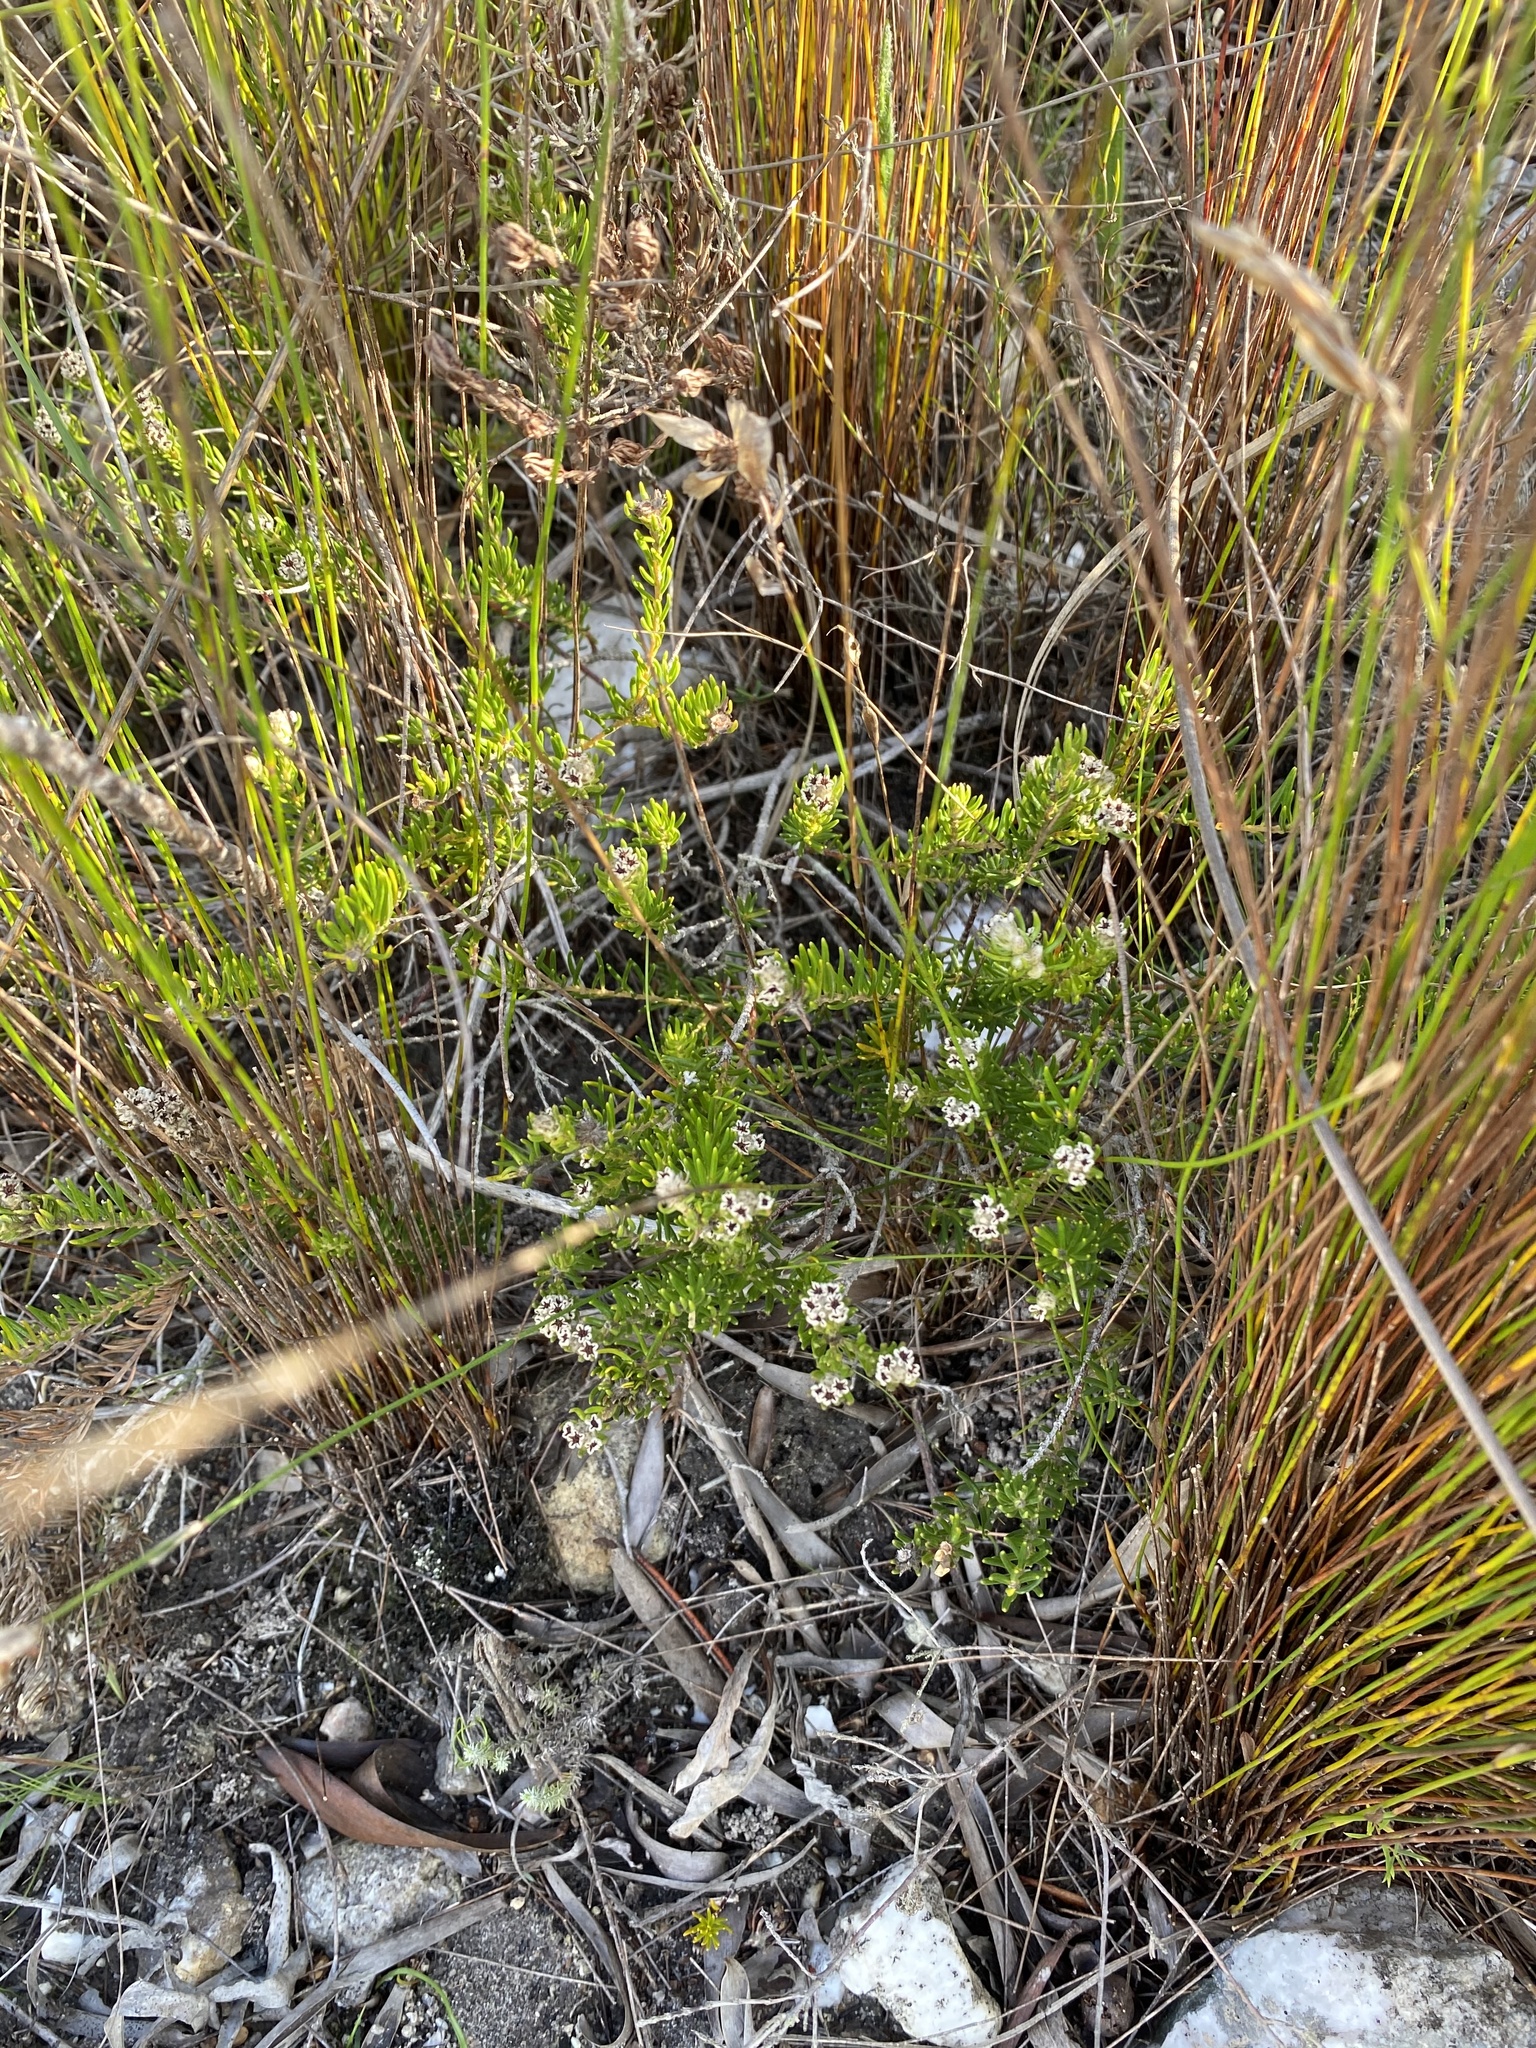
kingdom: Plantae
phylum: Tracheophyta
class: Magnoliopsida
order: Rosales
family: Rhamnaceae
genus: Phylica
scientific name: Phylica diosmoides
